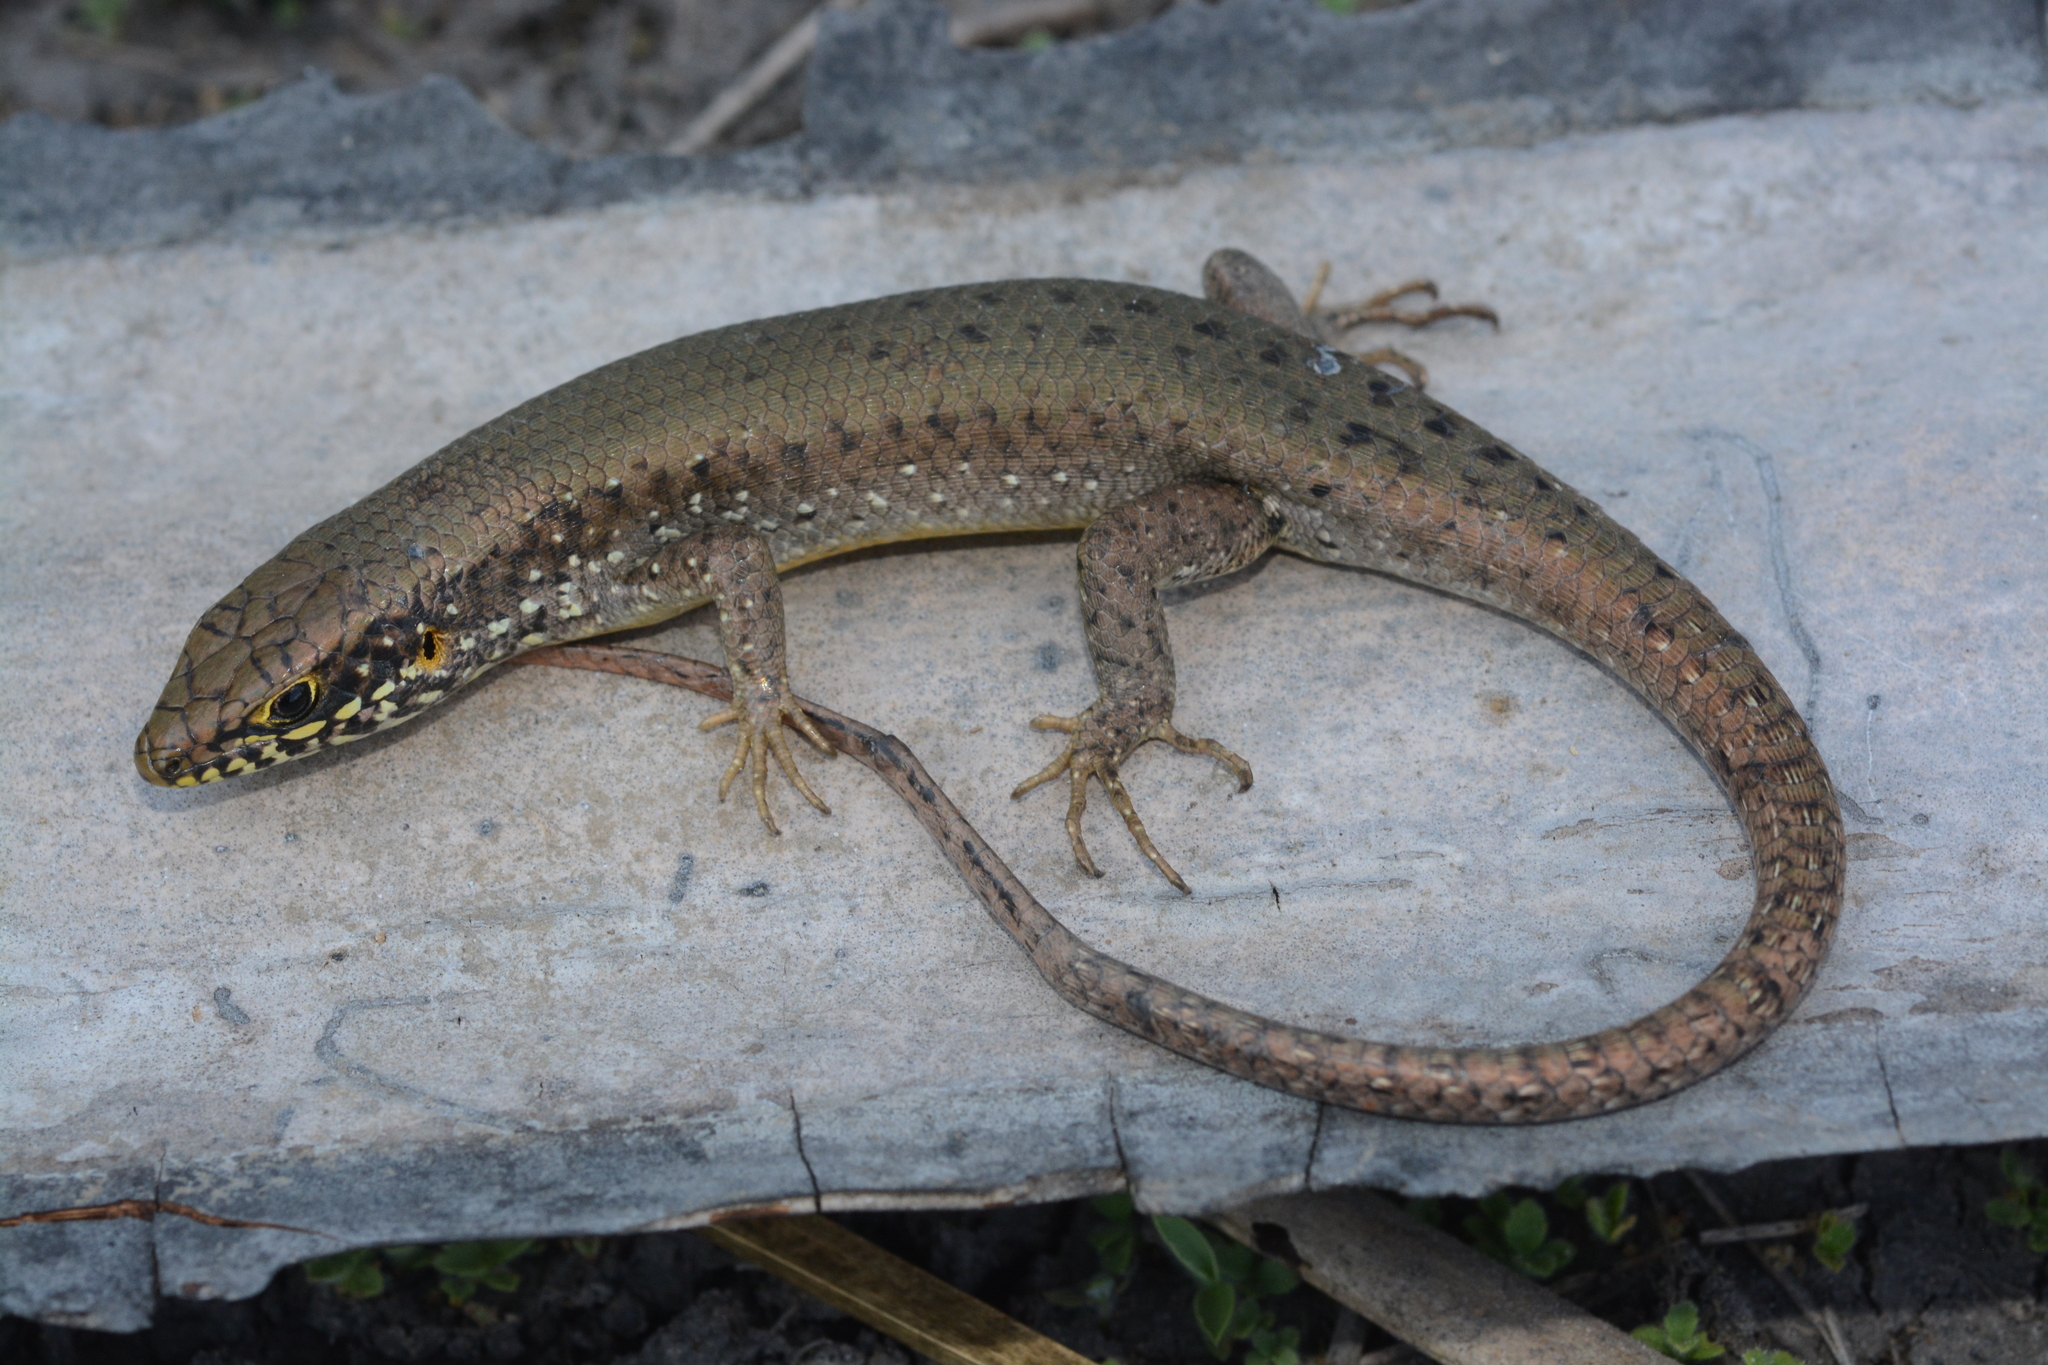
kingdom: Animalia
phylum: Chordata
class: Squamata
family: Scincidae
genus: Trachylepis
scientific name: Trachylepis maculilabris
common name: Speckle-lipped mabuya
